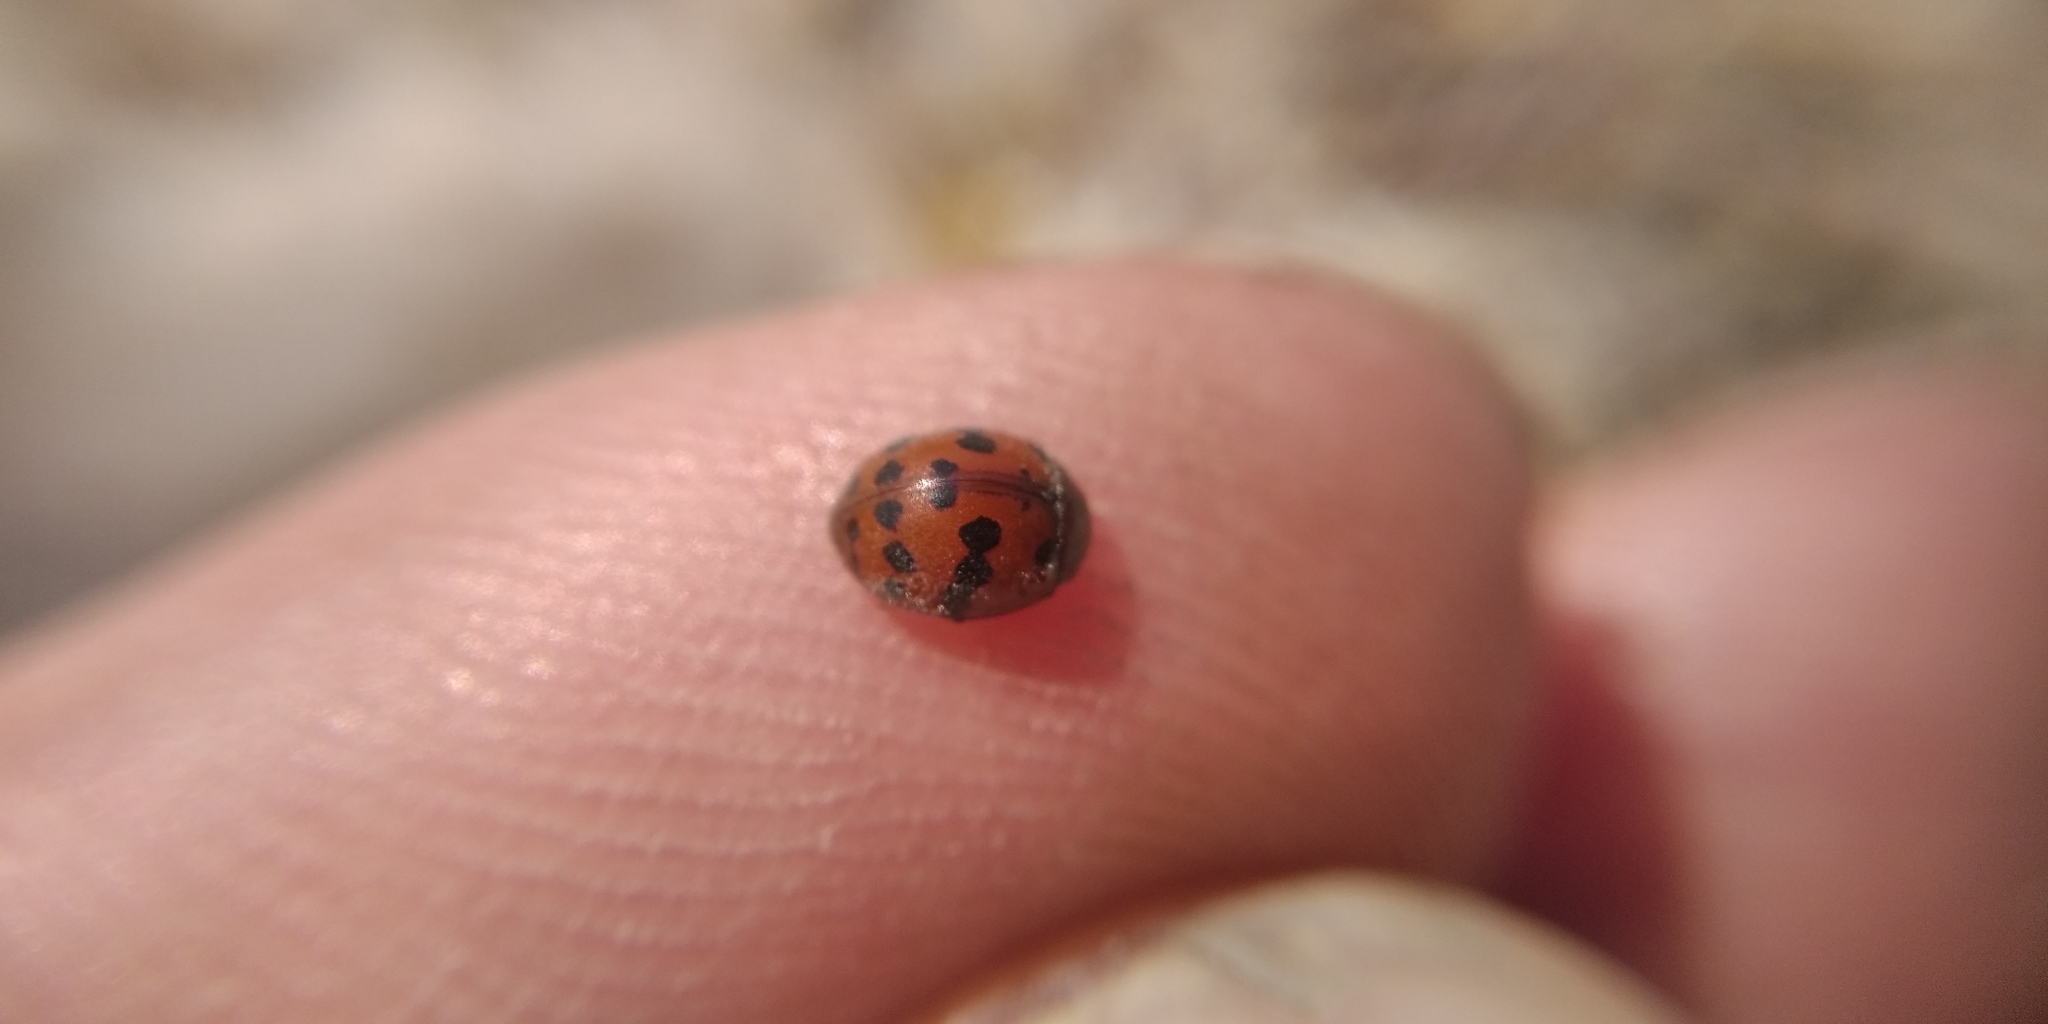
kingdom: Animalia
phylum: Arthropoda
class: Insecta
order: Coleoptera
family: Coccinellidae
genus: Subcoccinella
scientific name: Subcoccinella vigintiquatuorpunctata
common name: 24-spot ladybird
